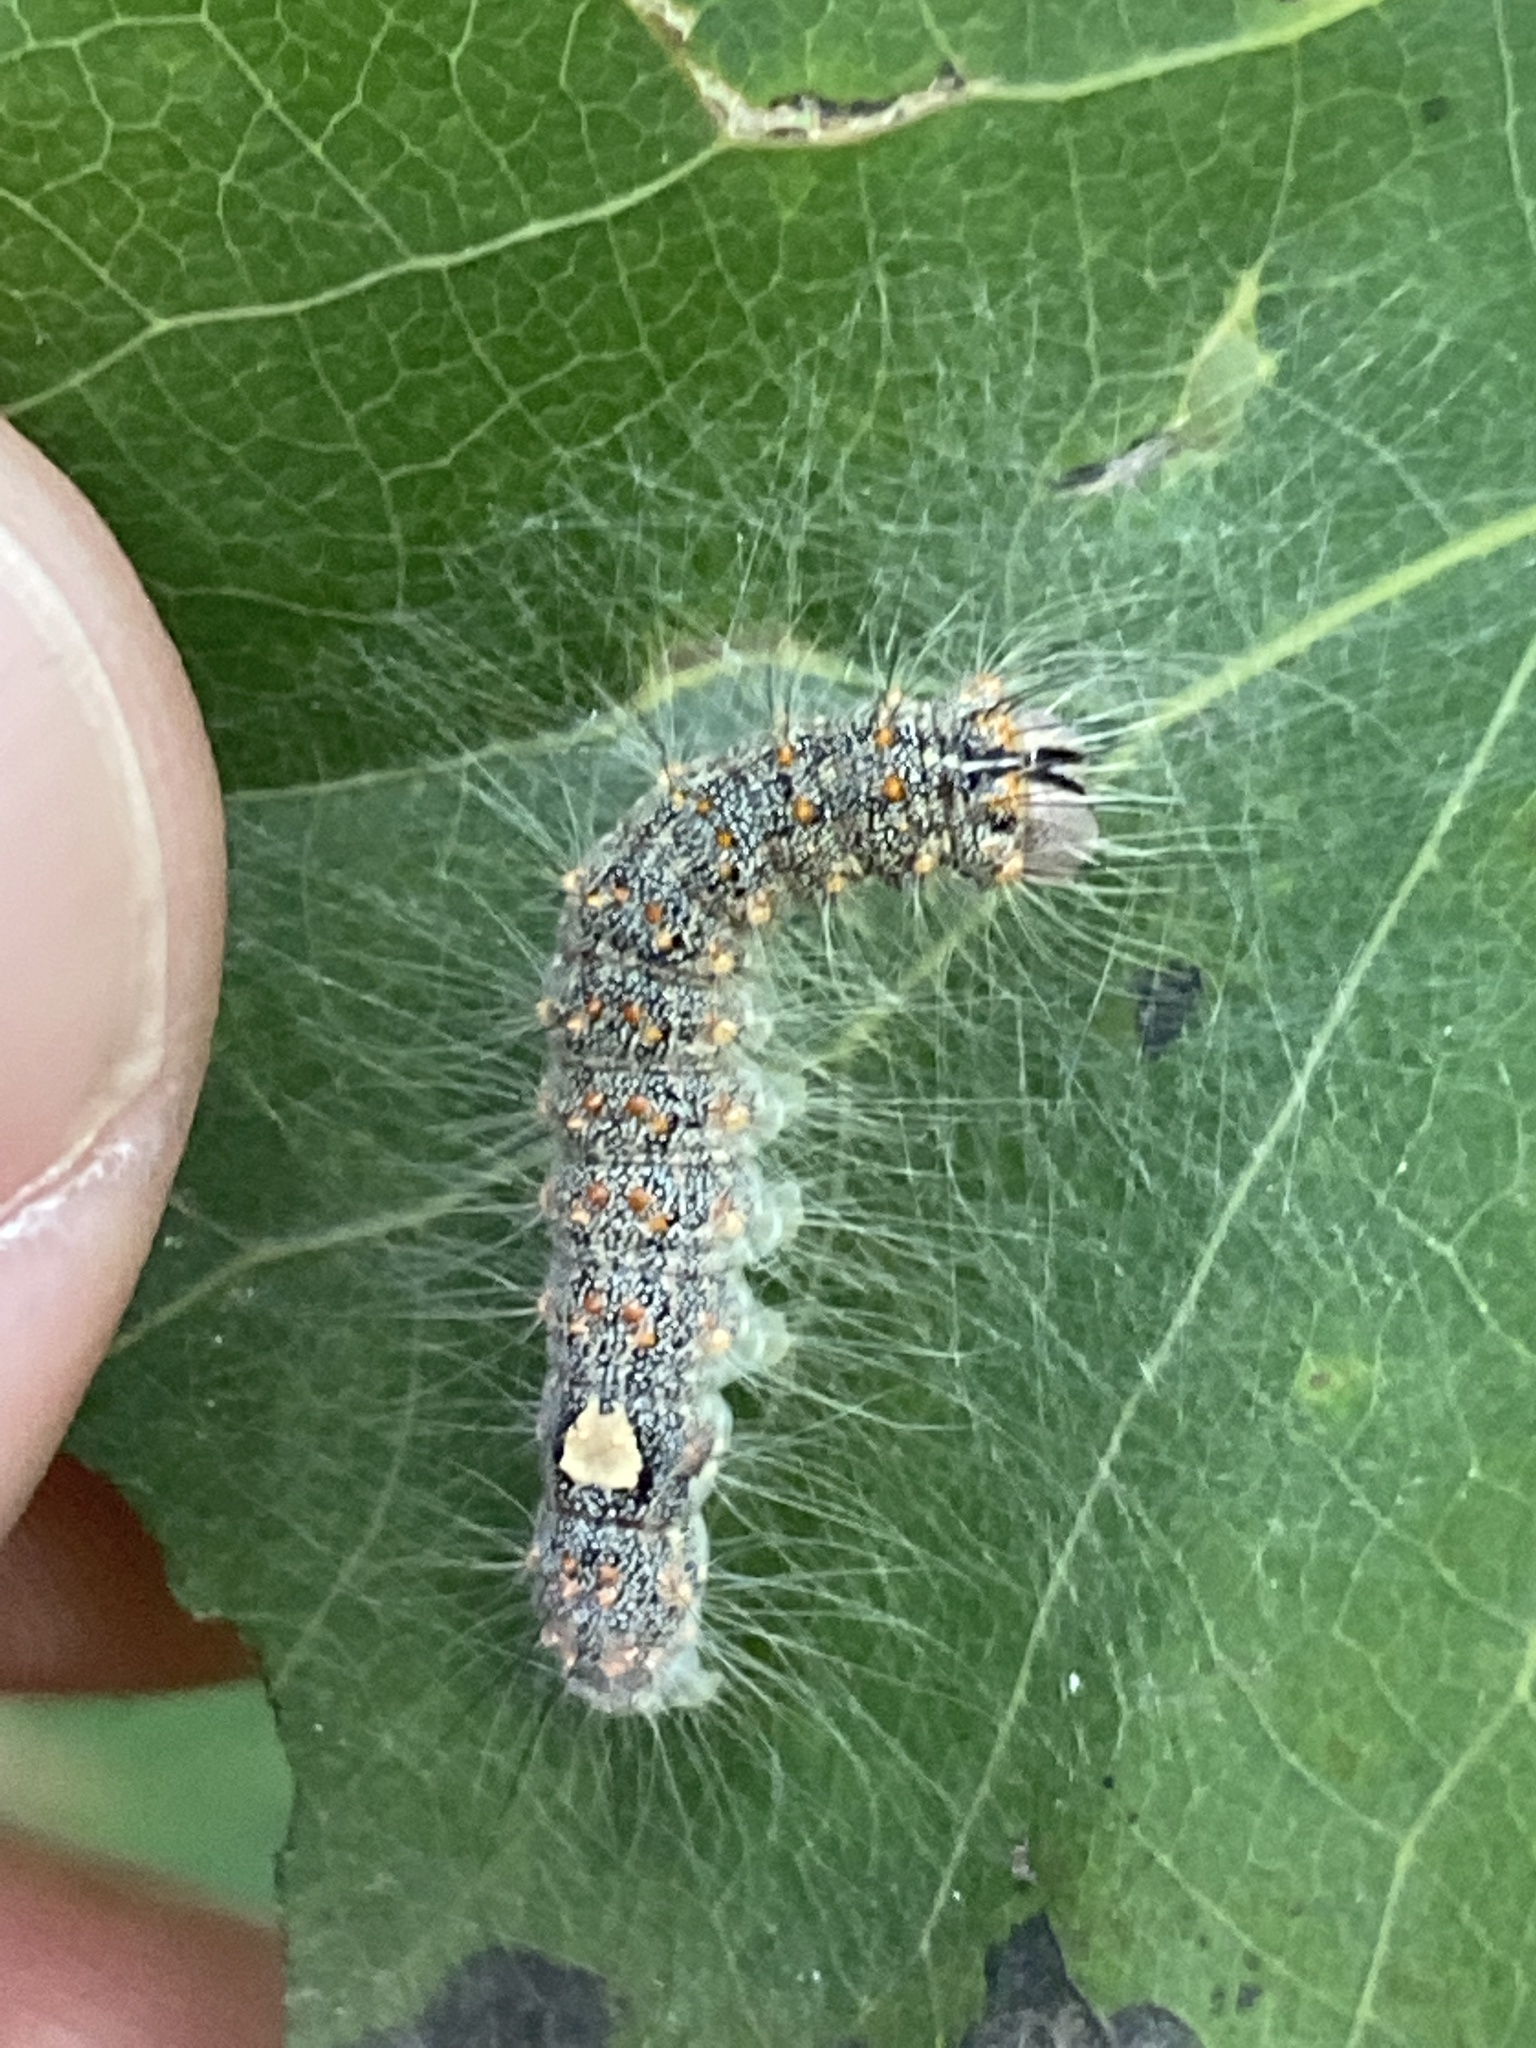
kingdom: Animalia
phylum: Arthropoda
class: Insecta
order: Lepidoptera
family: Noctuidae
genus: Acronicta
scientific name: Acronicta megacephala
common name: Poplar grey
